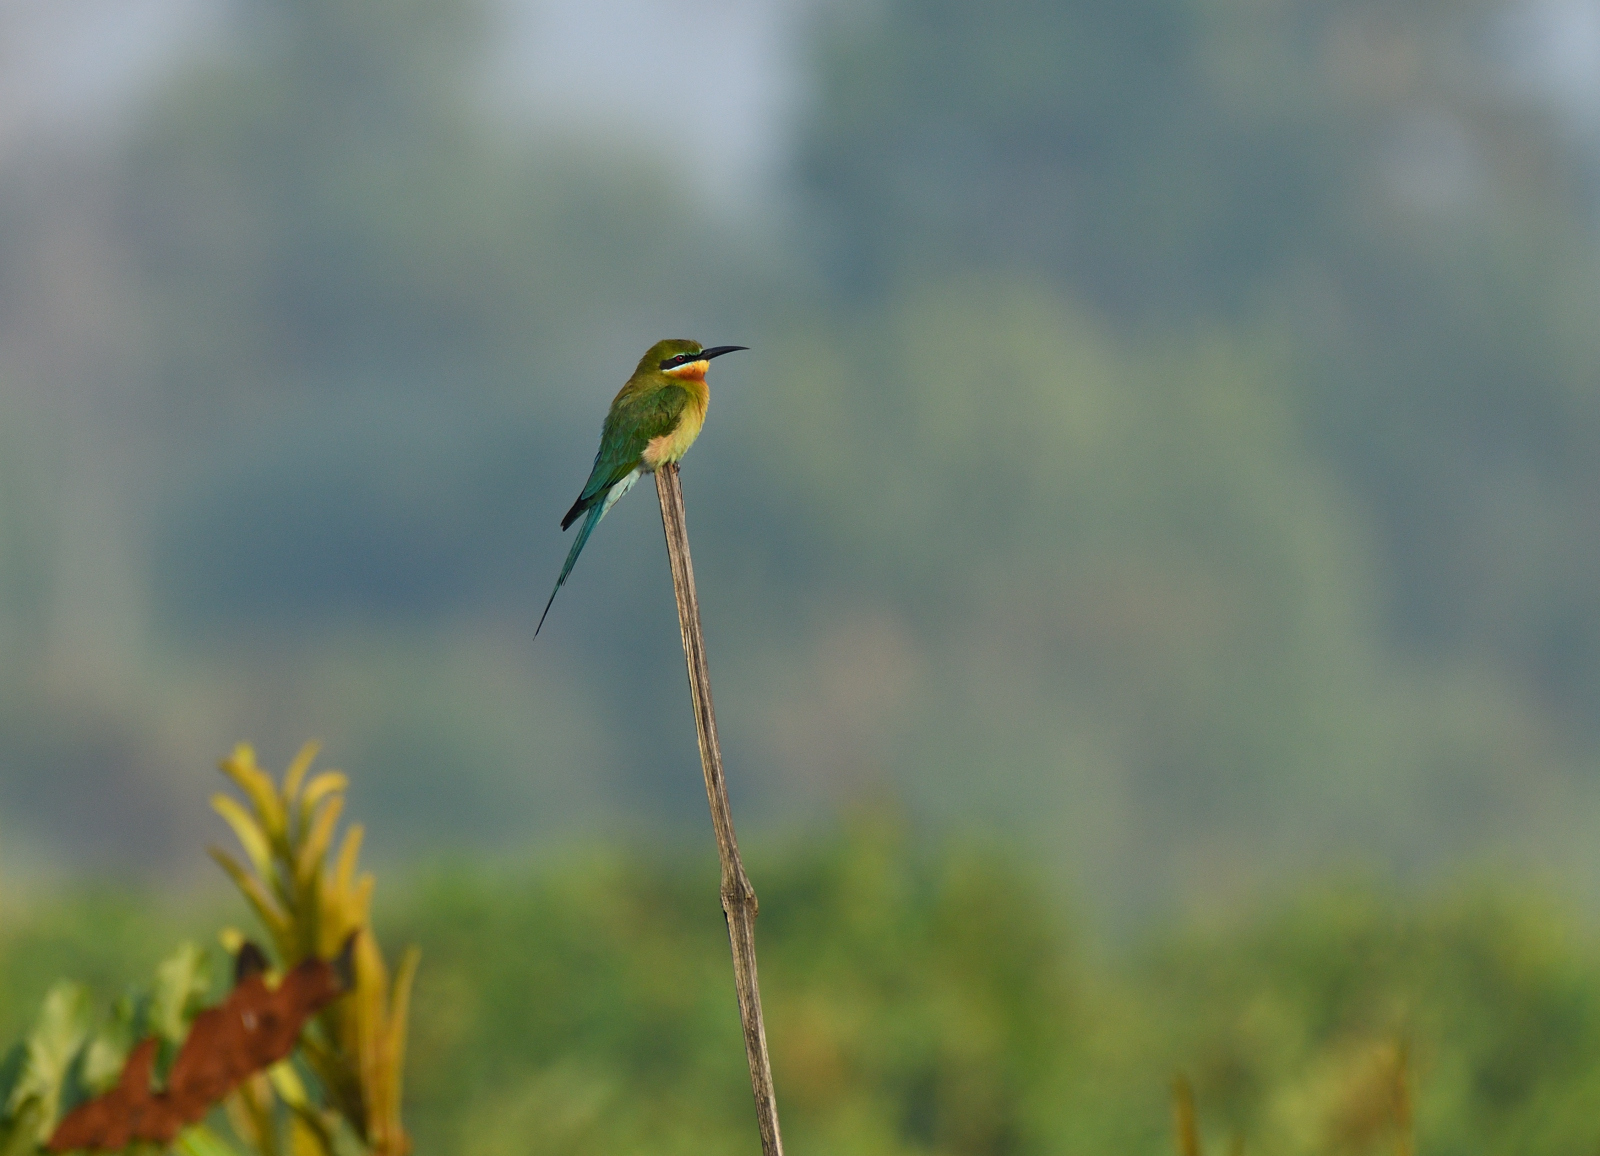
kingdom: Animalia
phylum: Chordata
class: Aves
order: Coraciiformes
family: Meropidae
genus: Merops
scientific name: Merops philippinus
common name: Blue-tailed bee-eater
